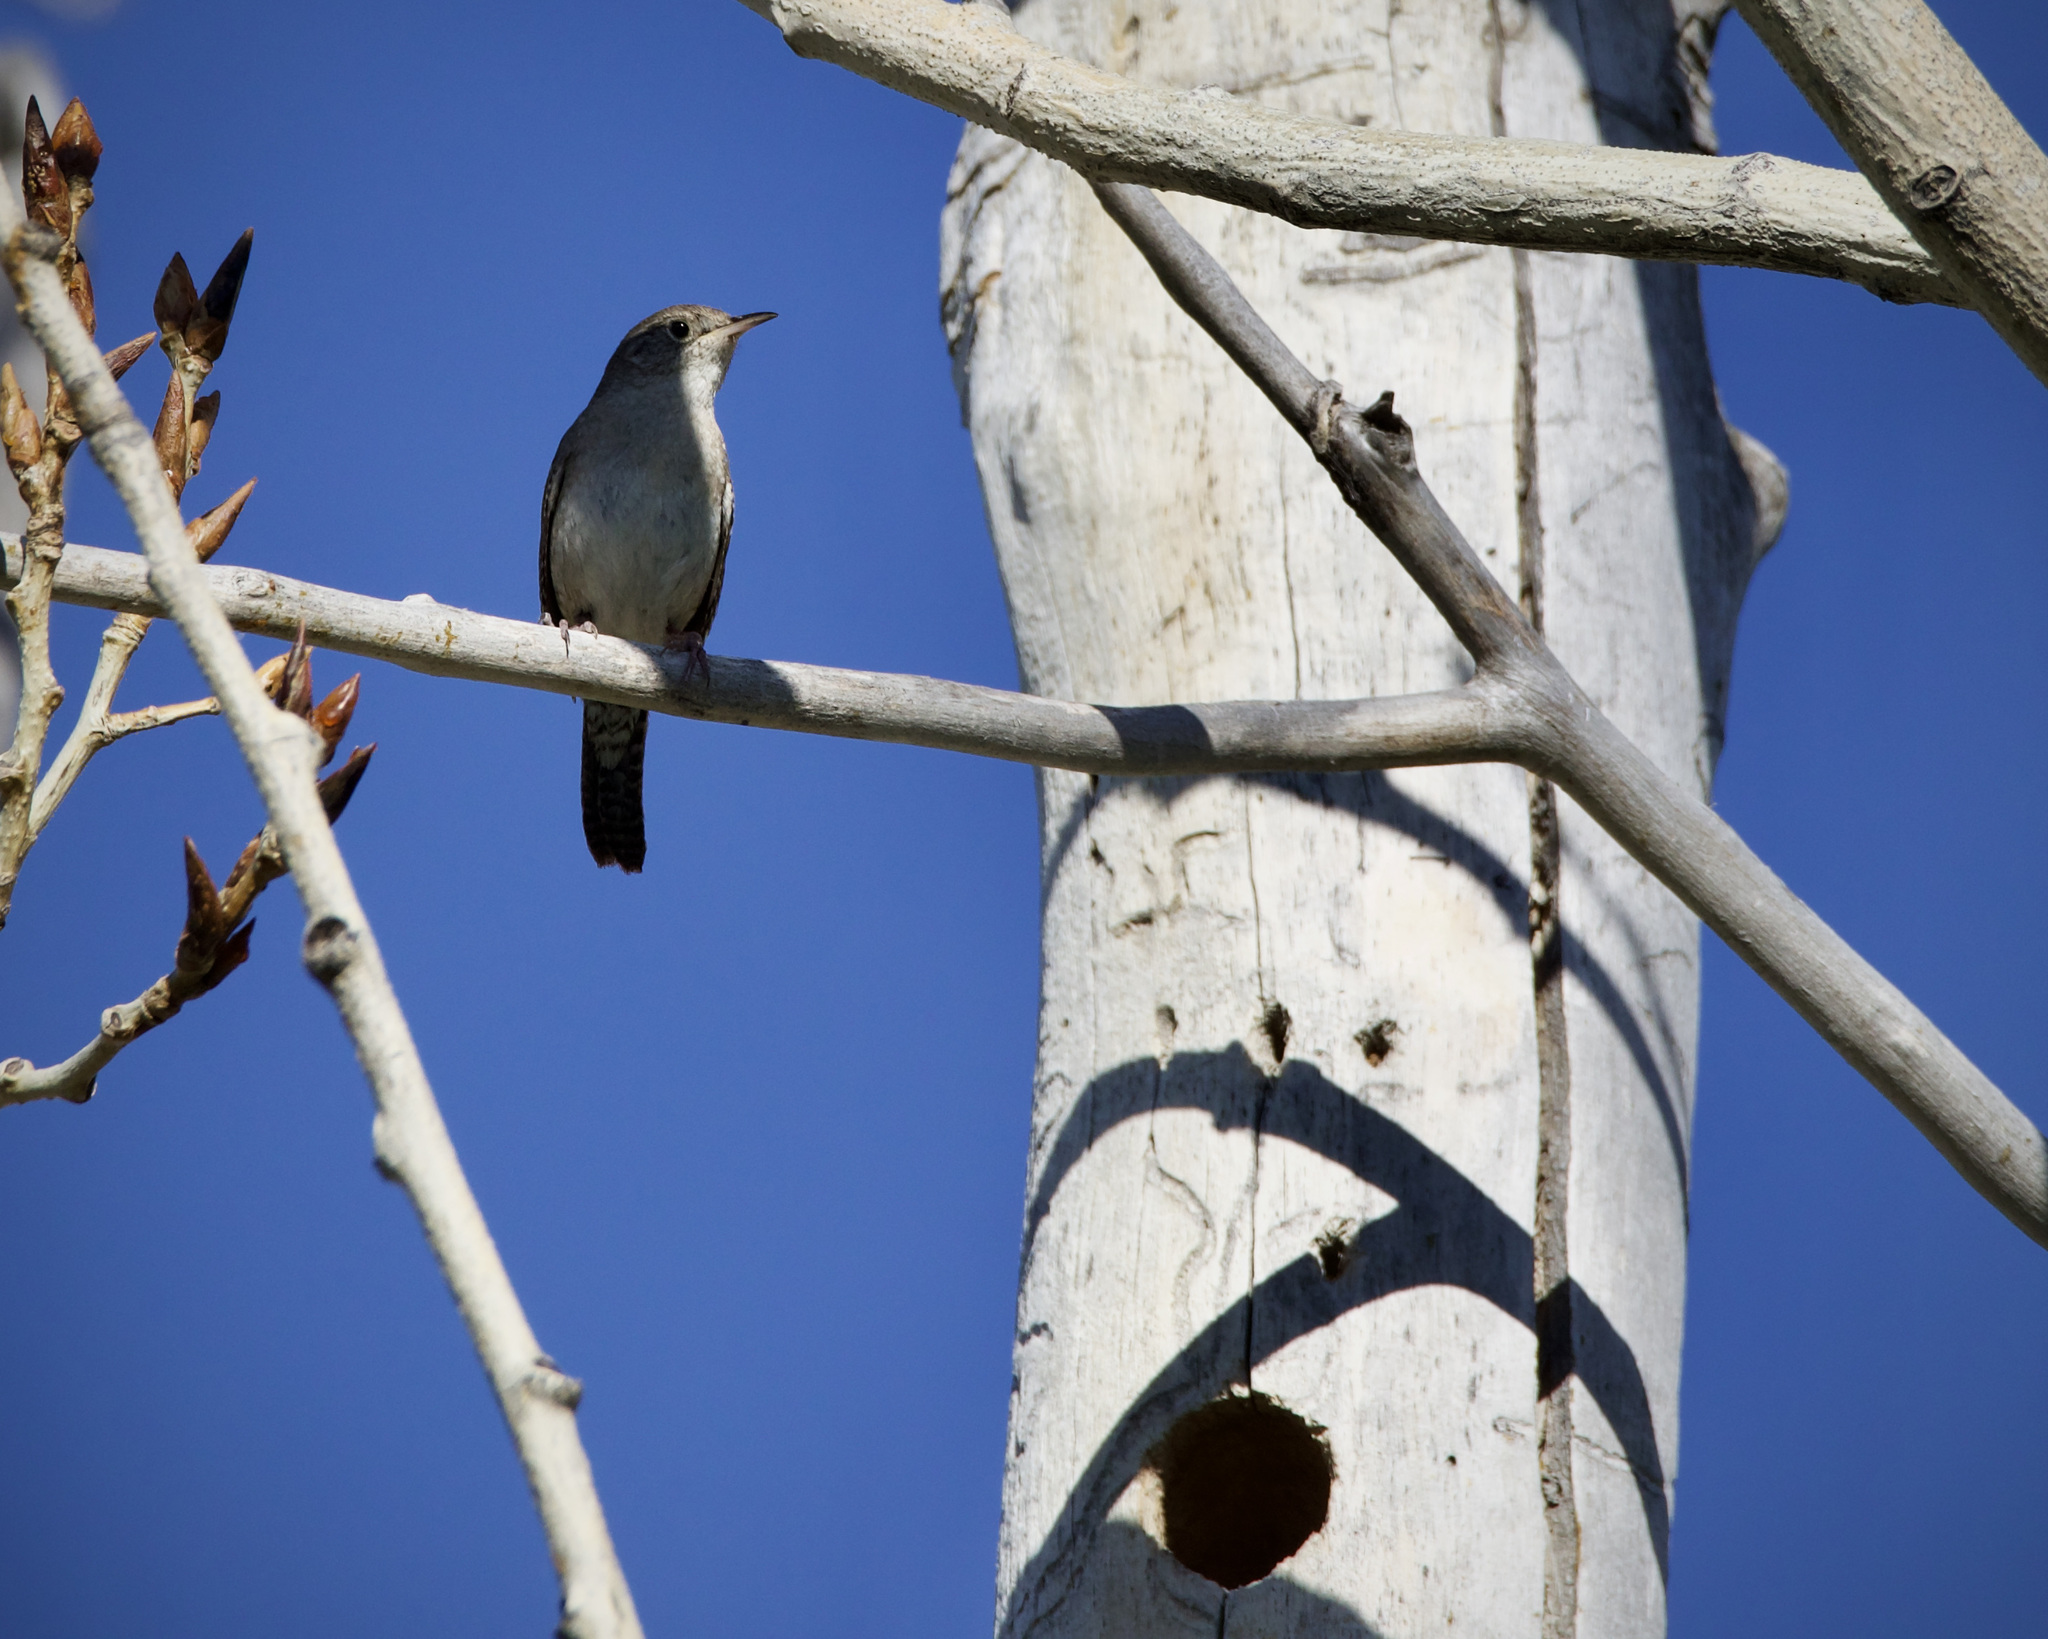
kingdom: Animalia
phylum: Chordata
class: Aves
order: Passeriformes
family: Troglodytidae
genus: Troglodytes
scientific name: Troglodytes aedon
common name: House wren
